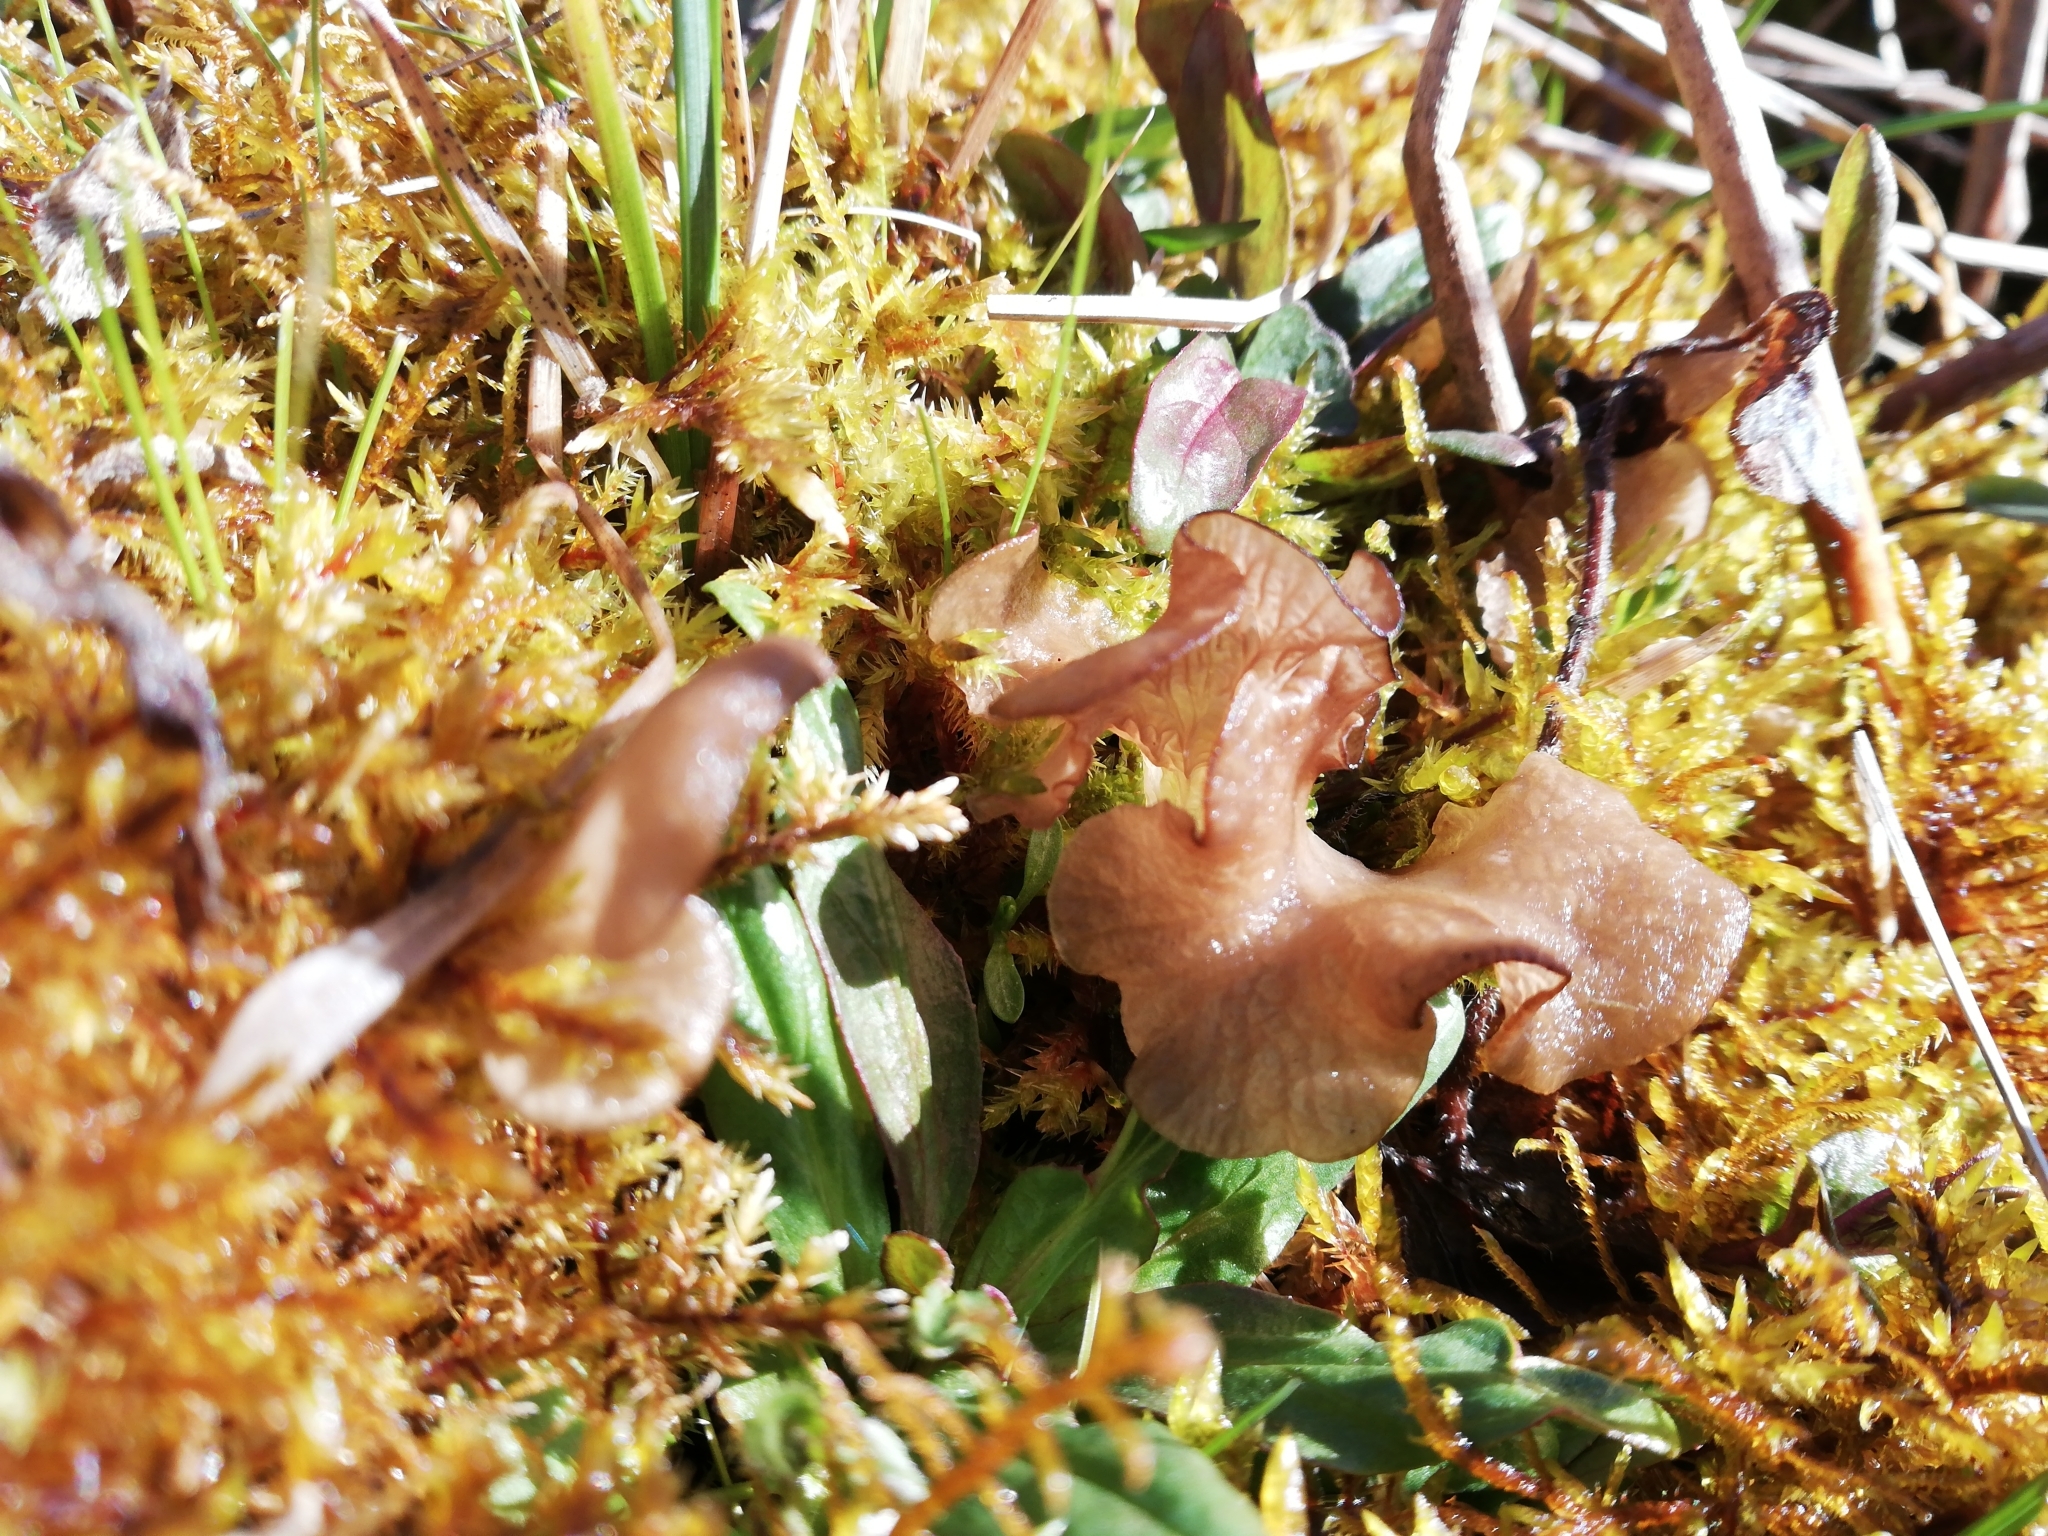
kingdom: Fungi
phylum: Basidiomycota
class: Agaricomycetes
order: Agaricales
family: Hygrophoraceae
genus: Arrhenia
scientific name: Arrhenia lobata
